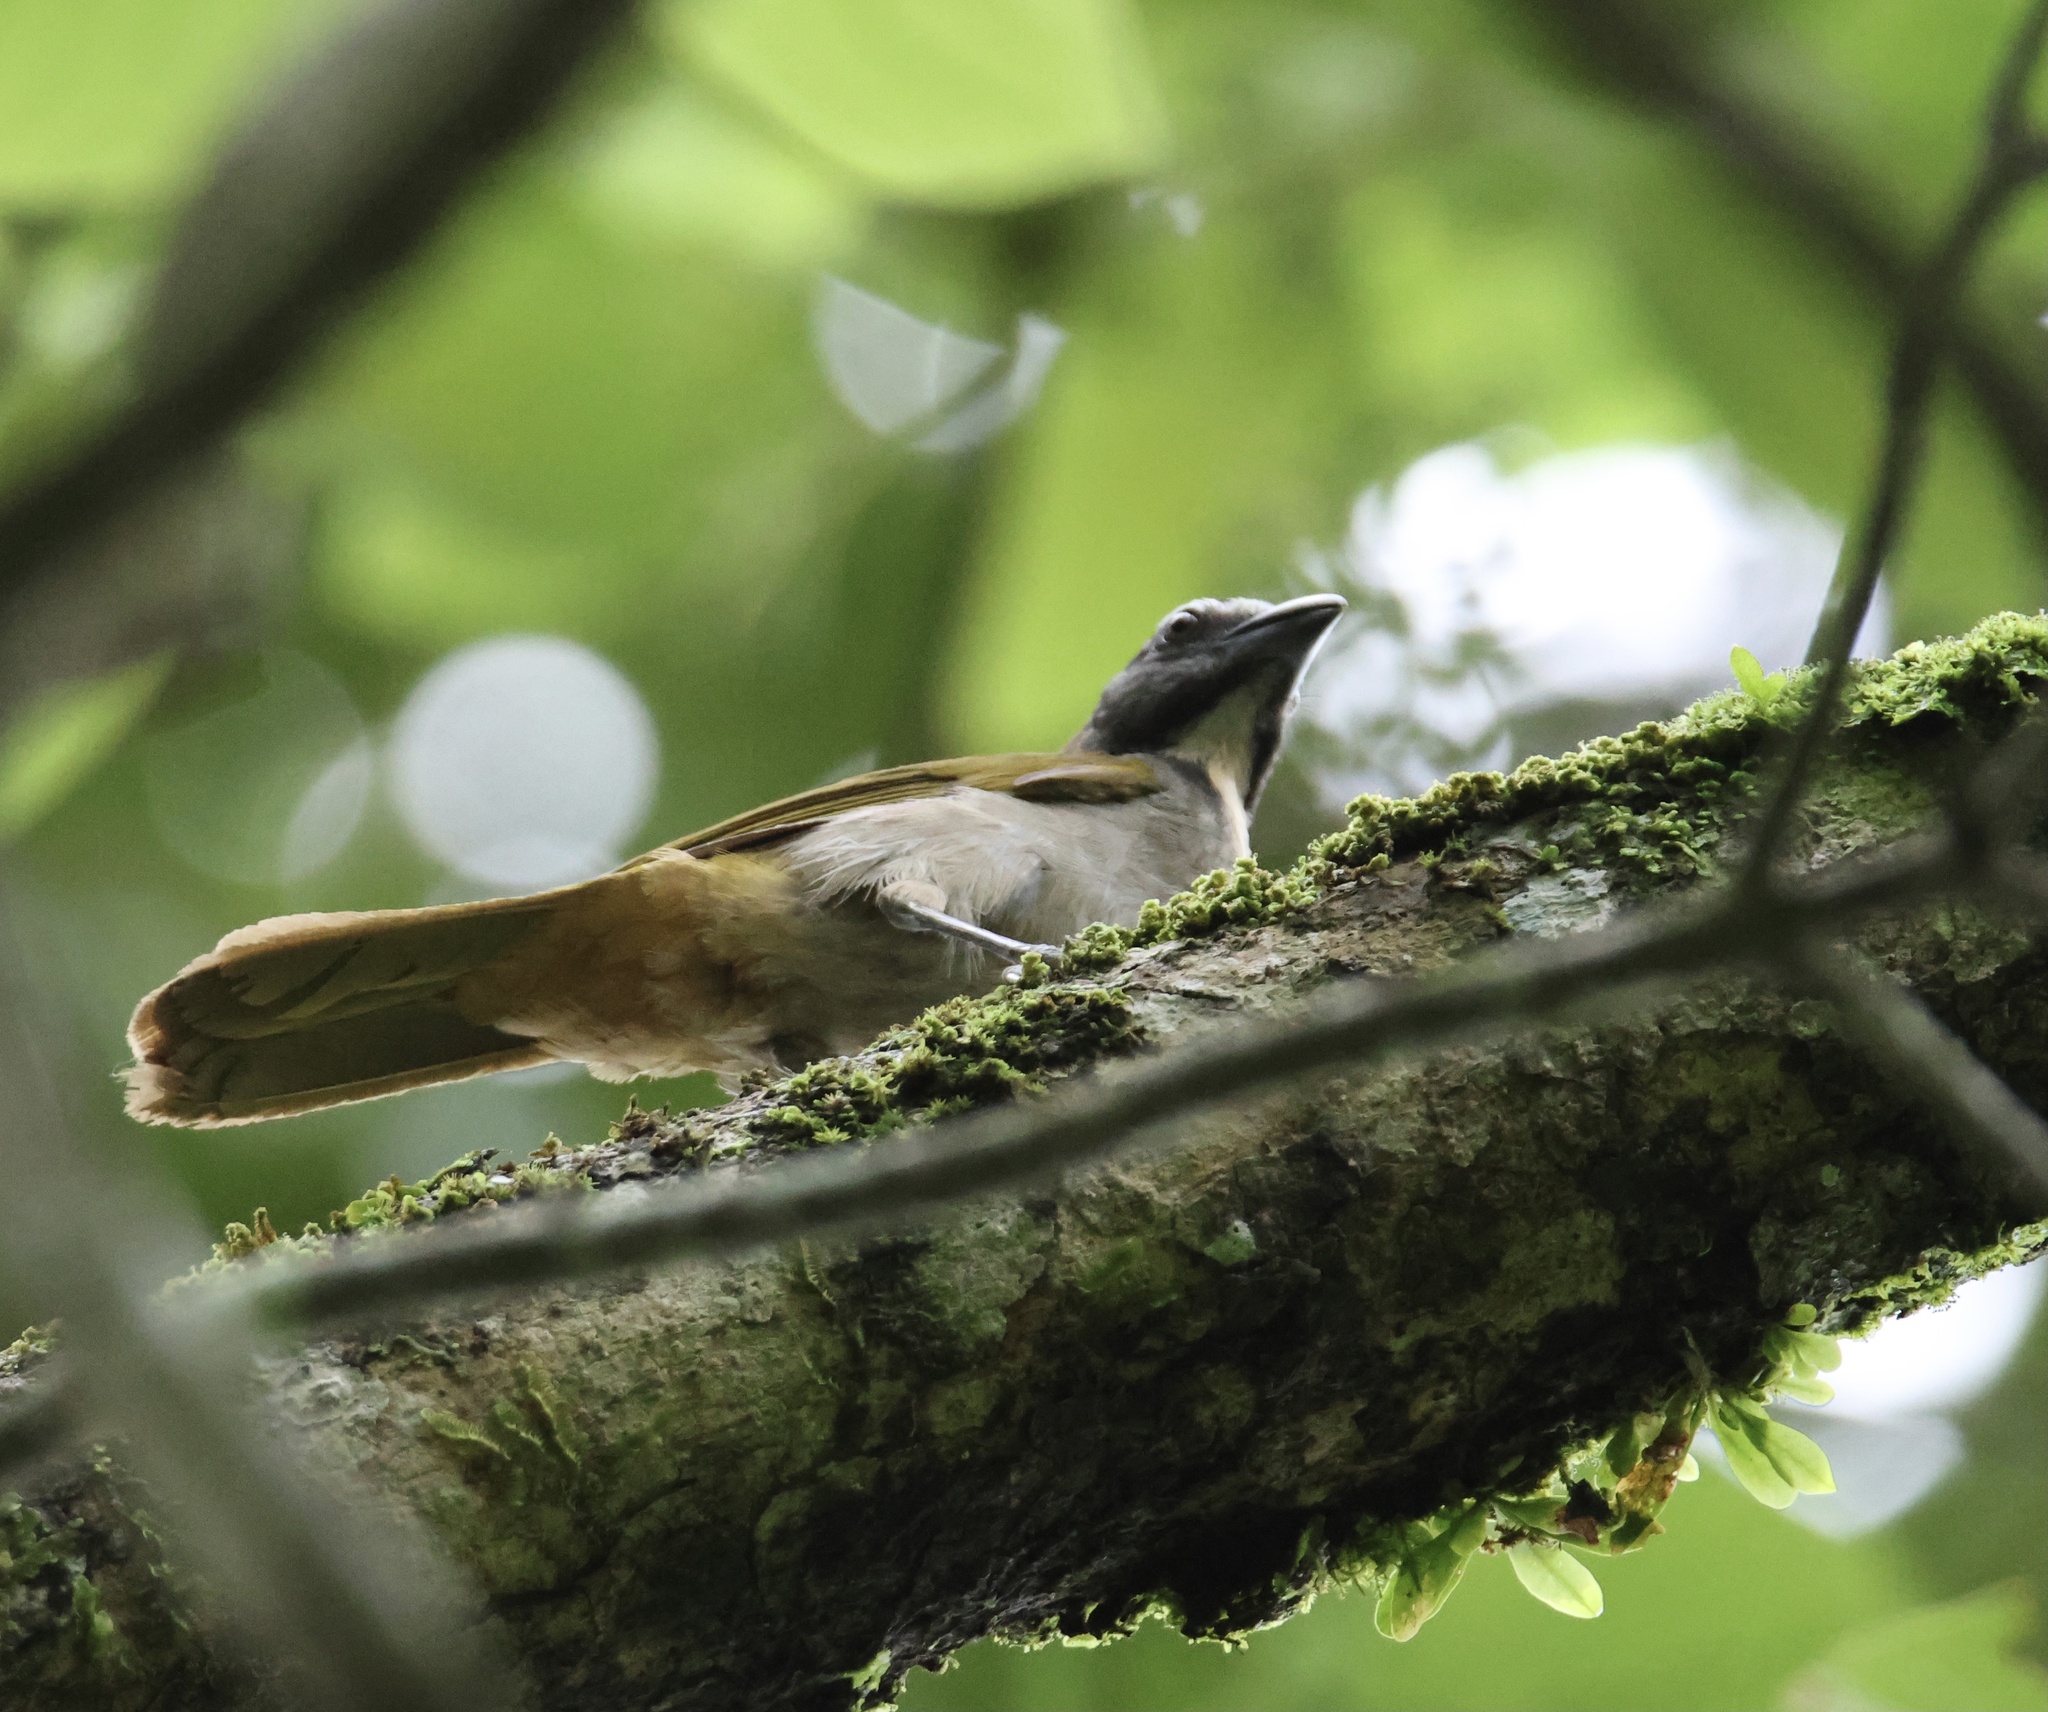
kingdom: Animalia
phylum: Chordata
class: Aves
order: Passeriformes
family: Thraupidae
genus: Saltator
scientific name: Saltator maximus
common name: Buff-throated saltator
